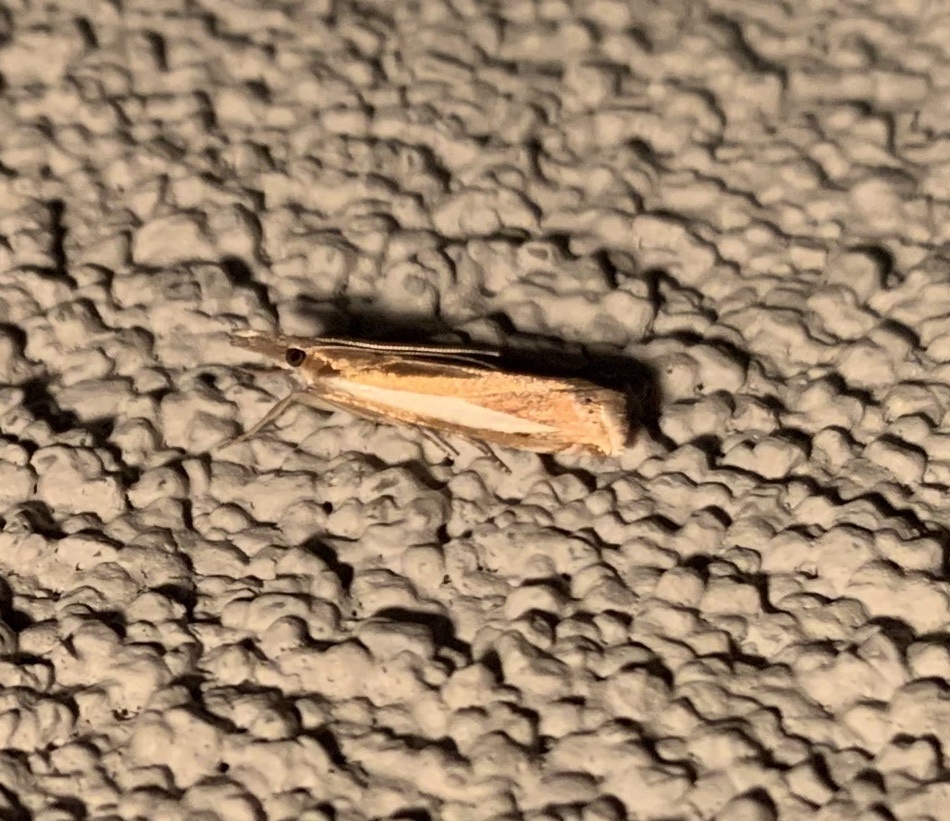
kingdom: Animalia
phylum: Arthropoda
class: Insecta
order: Lepidoptera
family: Crambidae
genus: Crambus
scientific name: Crambus praefectellus
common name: Common grass-veneer
